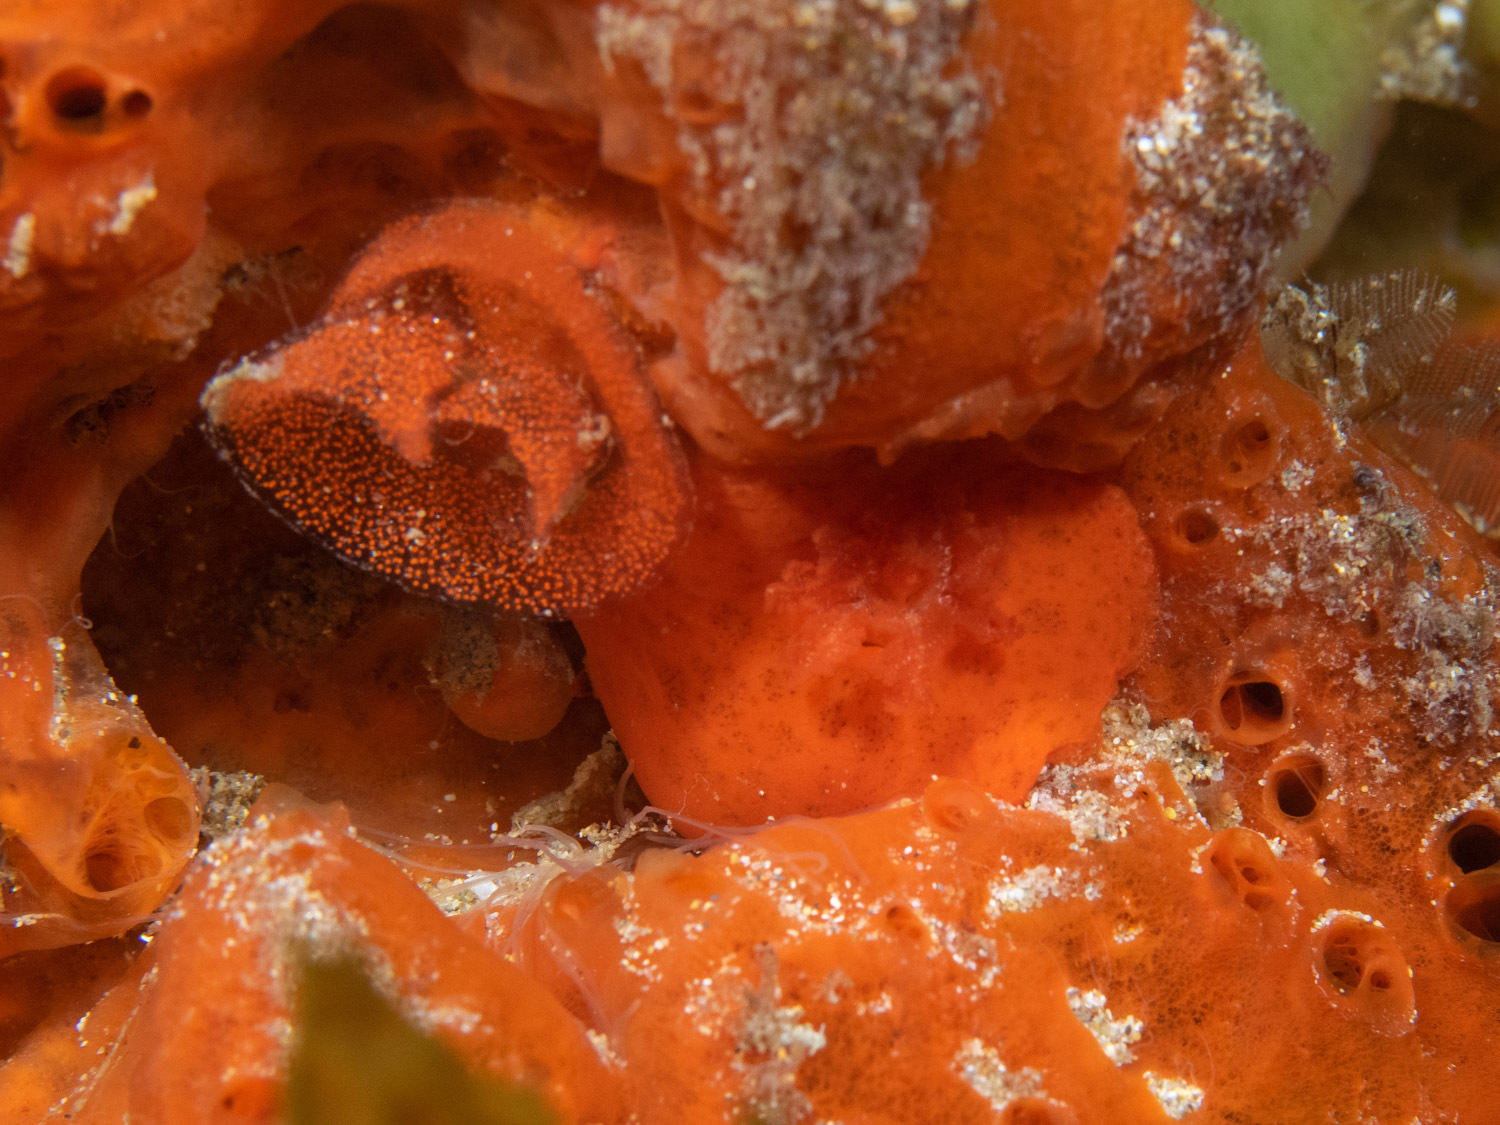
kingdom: Animalia
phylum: Mollusca
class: Gastropoda
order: Nudibranchia
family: Discodorididae
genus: Discodoris
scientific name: Discodoris paroa
